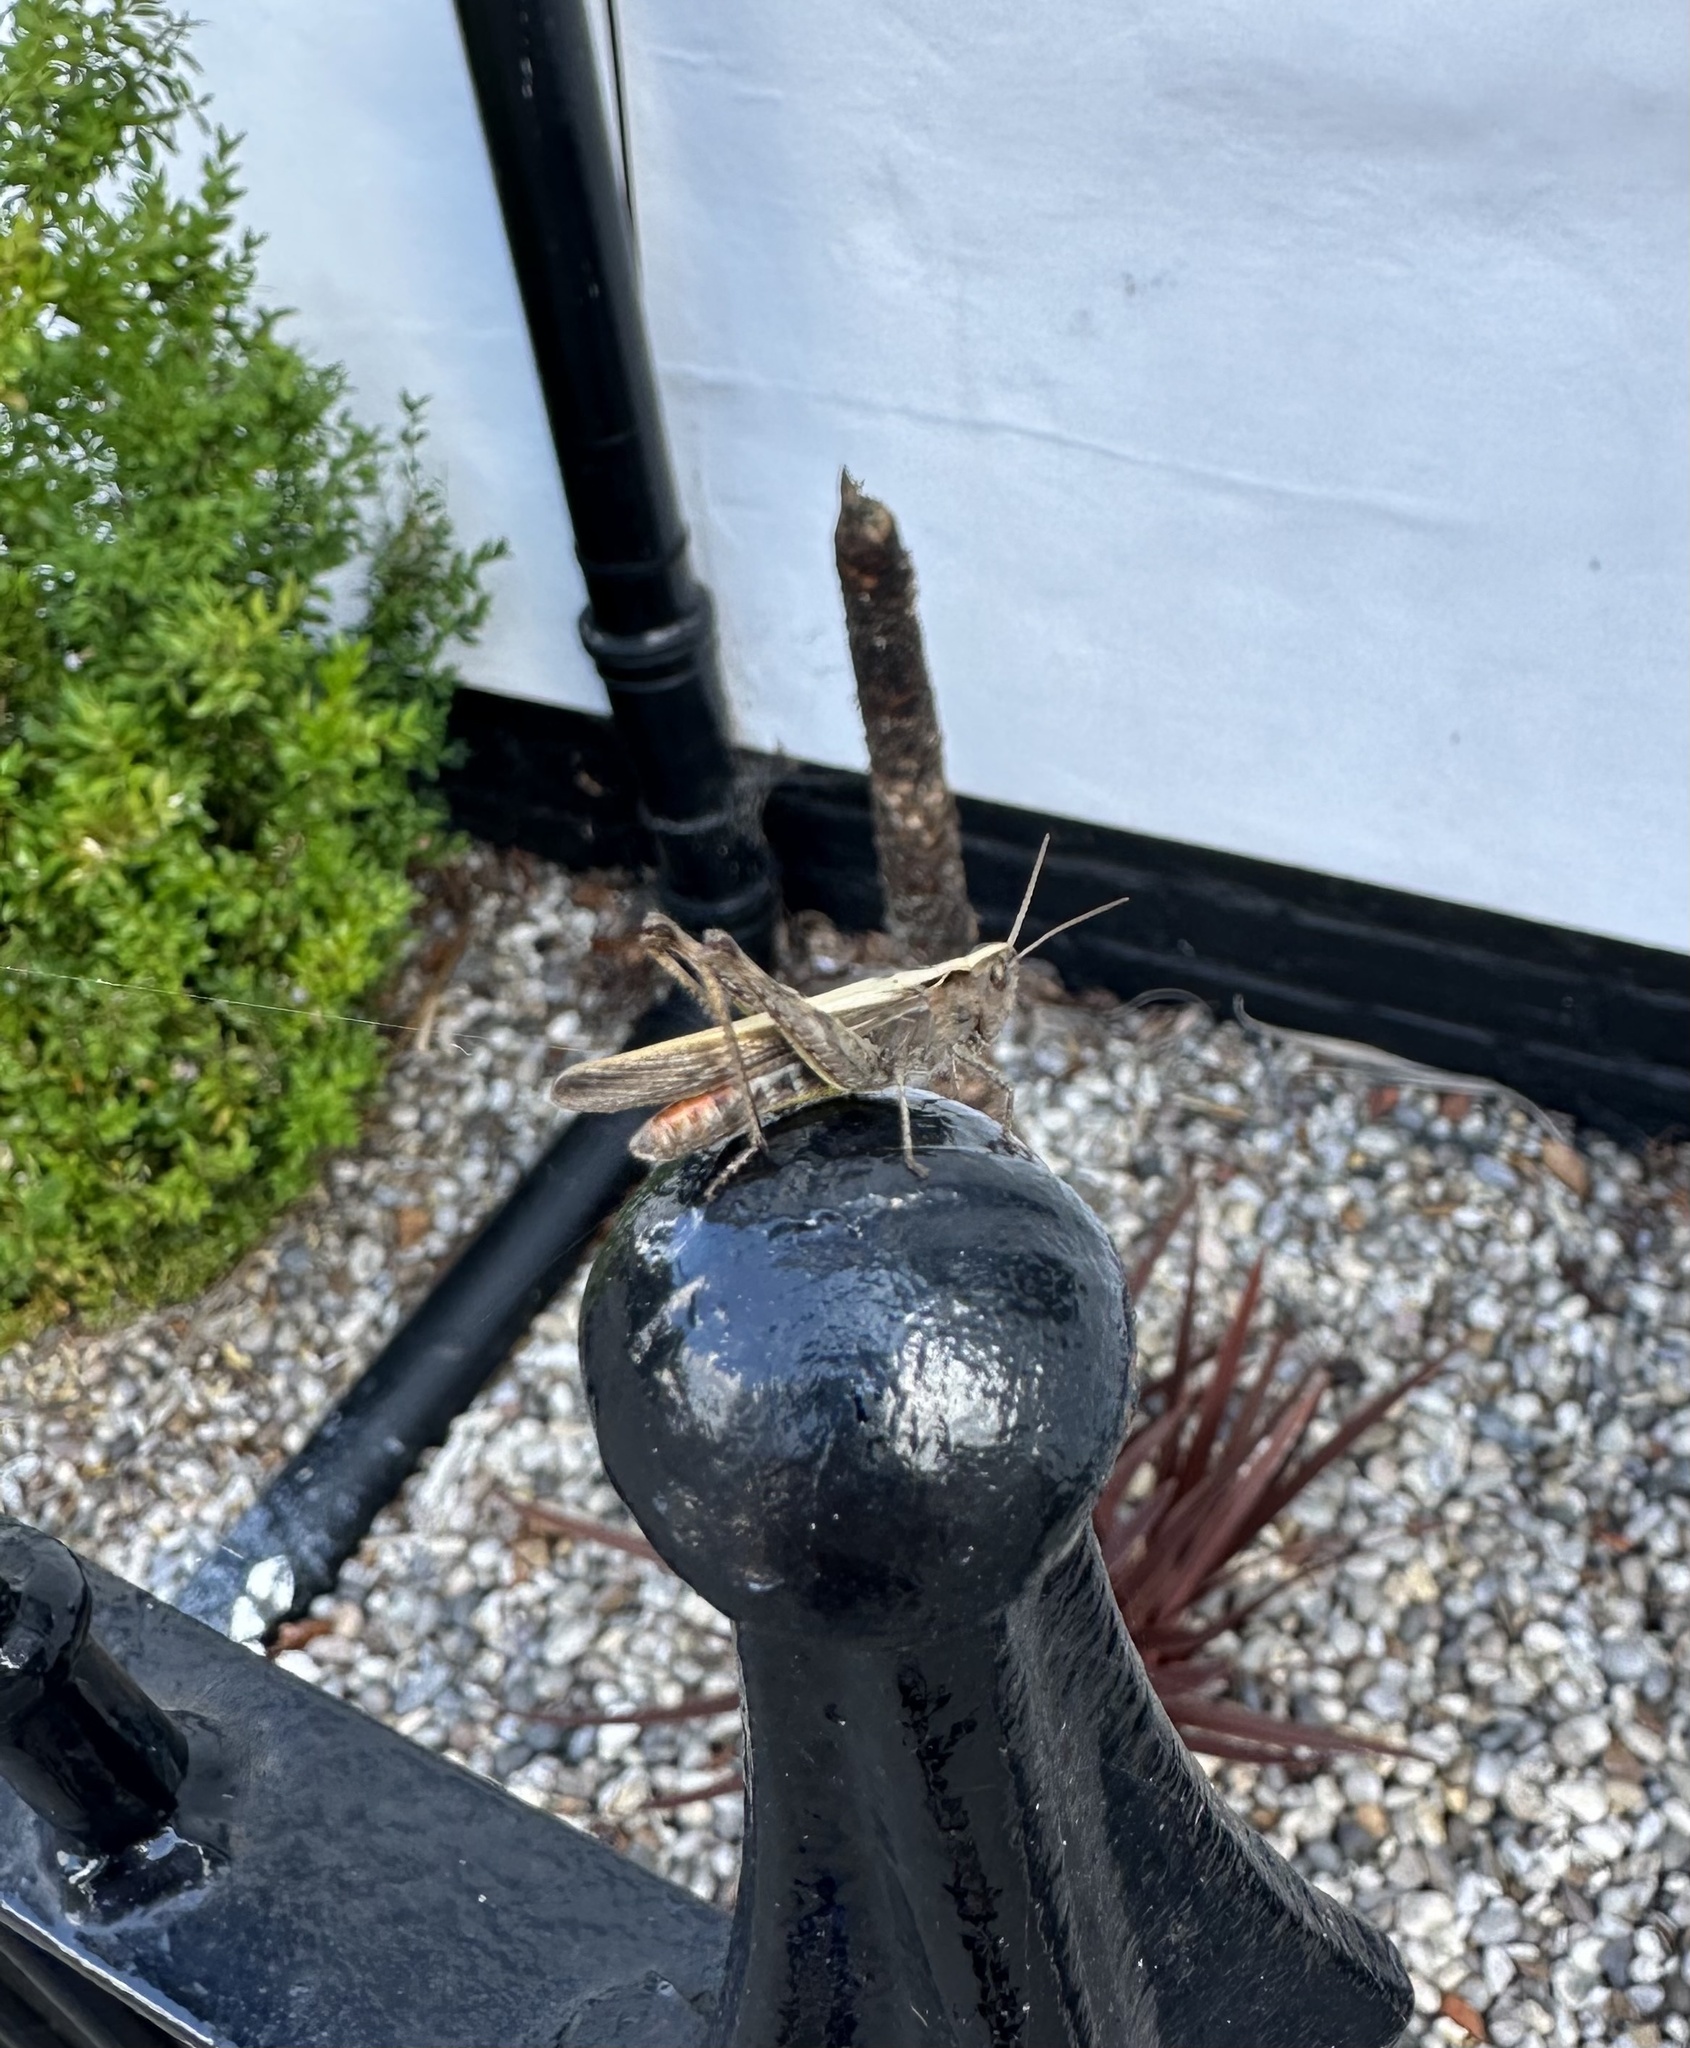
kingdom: Animalia
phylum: Arthropoda
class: Insecta
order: Orthoptera
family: Acrididae
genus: Chorthippus
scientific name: Chorthippus brunneus
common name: Field grasshopper
